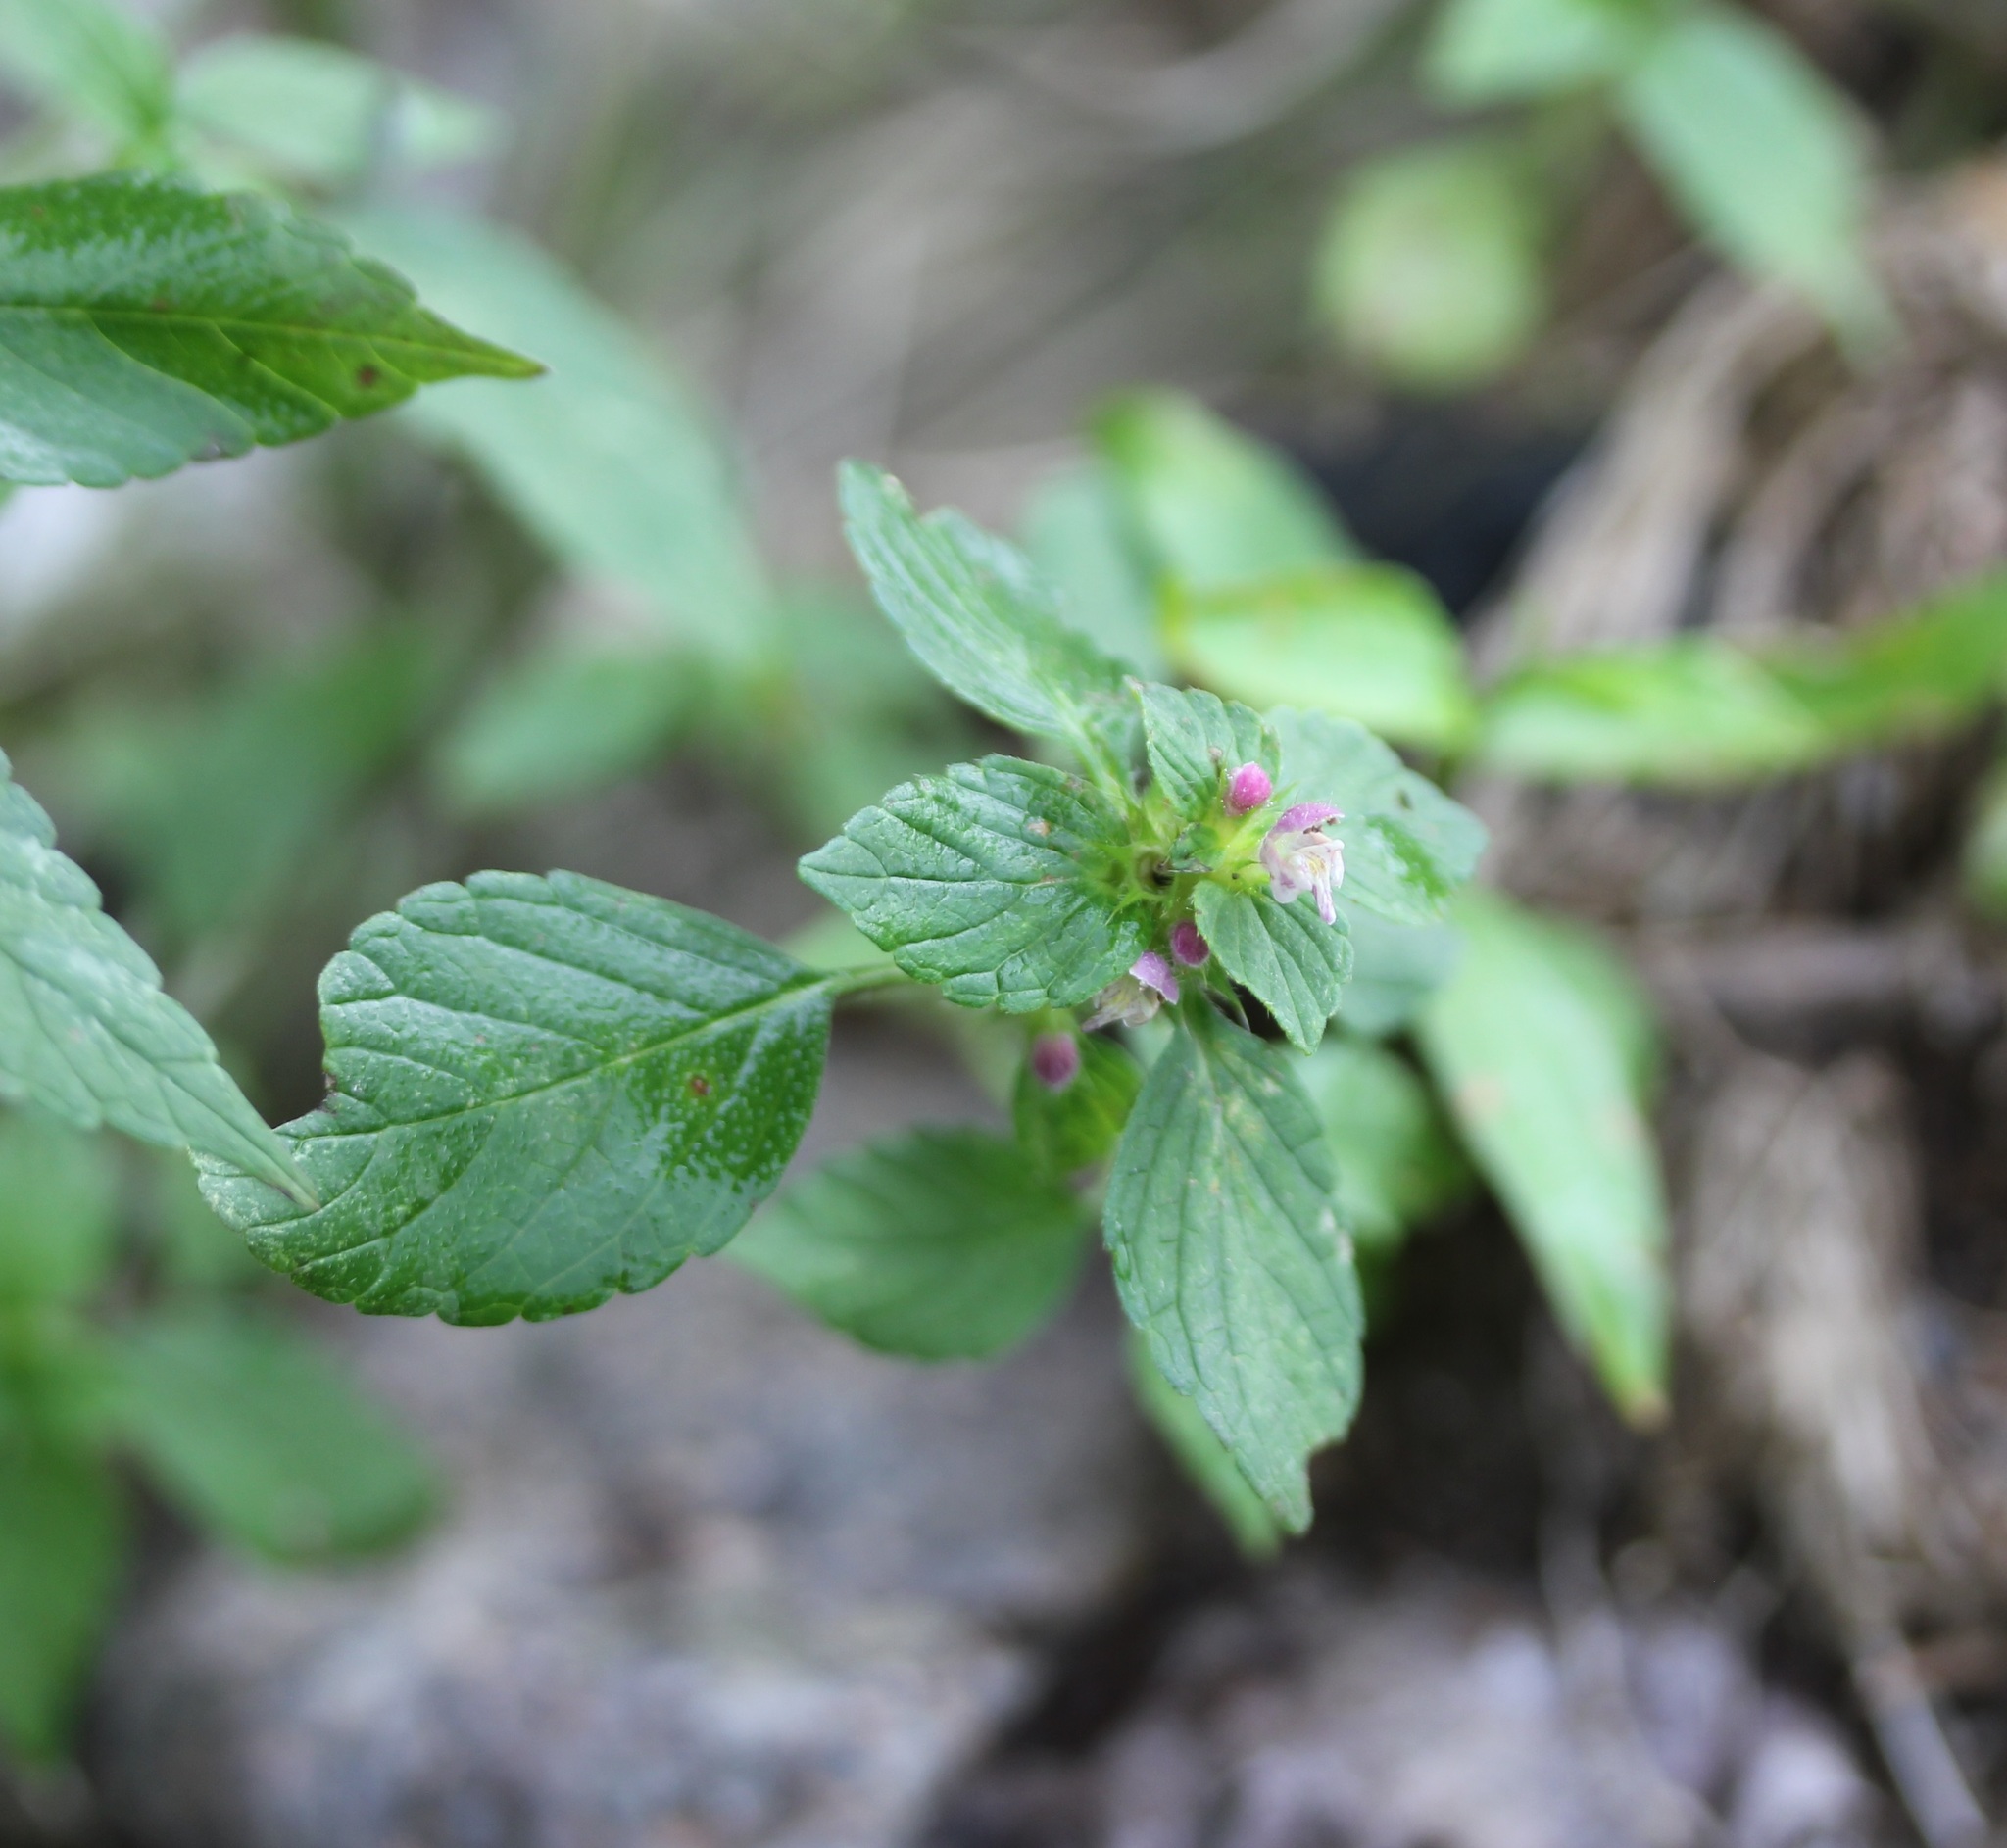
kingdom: Plantae
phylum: Tracheophyta
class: Magnoliopsida
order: Lamiales
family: Lamiaceae
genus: Galeopsis
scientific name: Galeopsis tetrahit
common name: Common hemp-nettle
